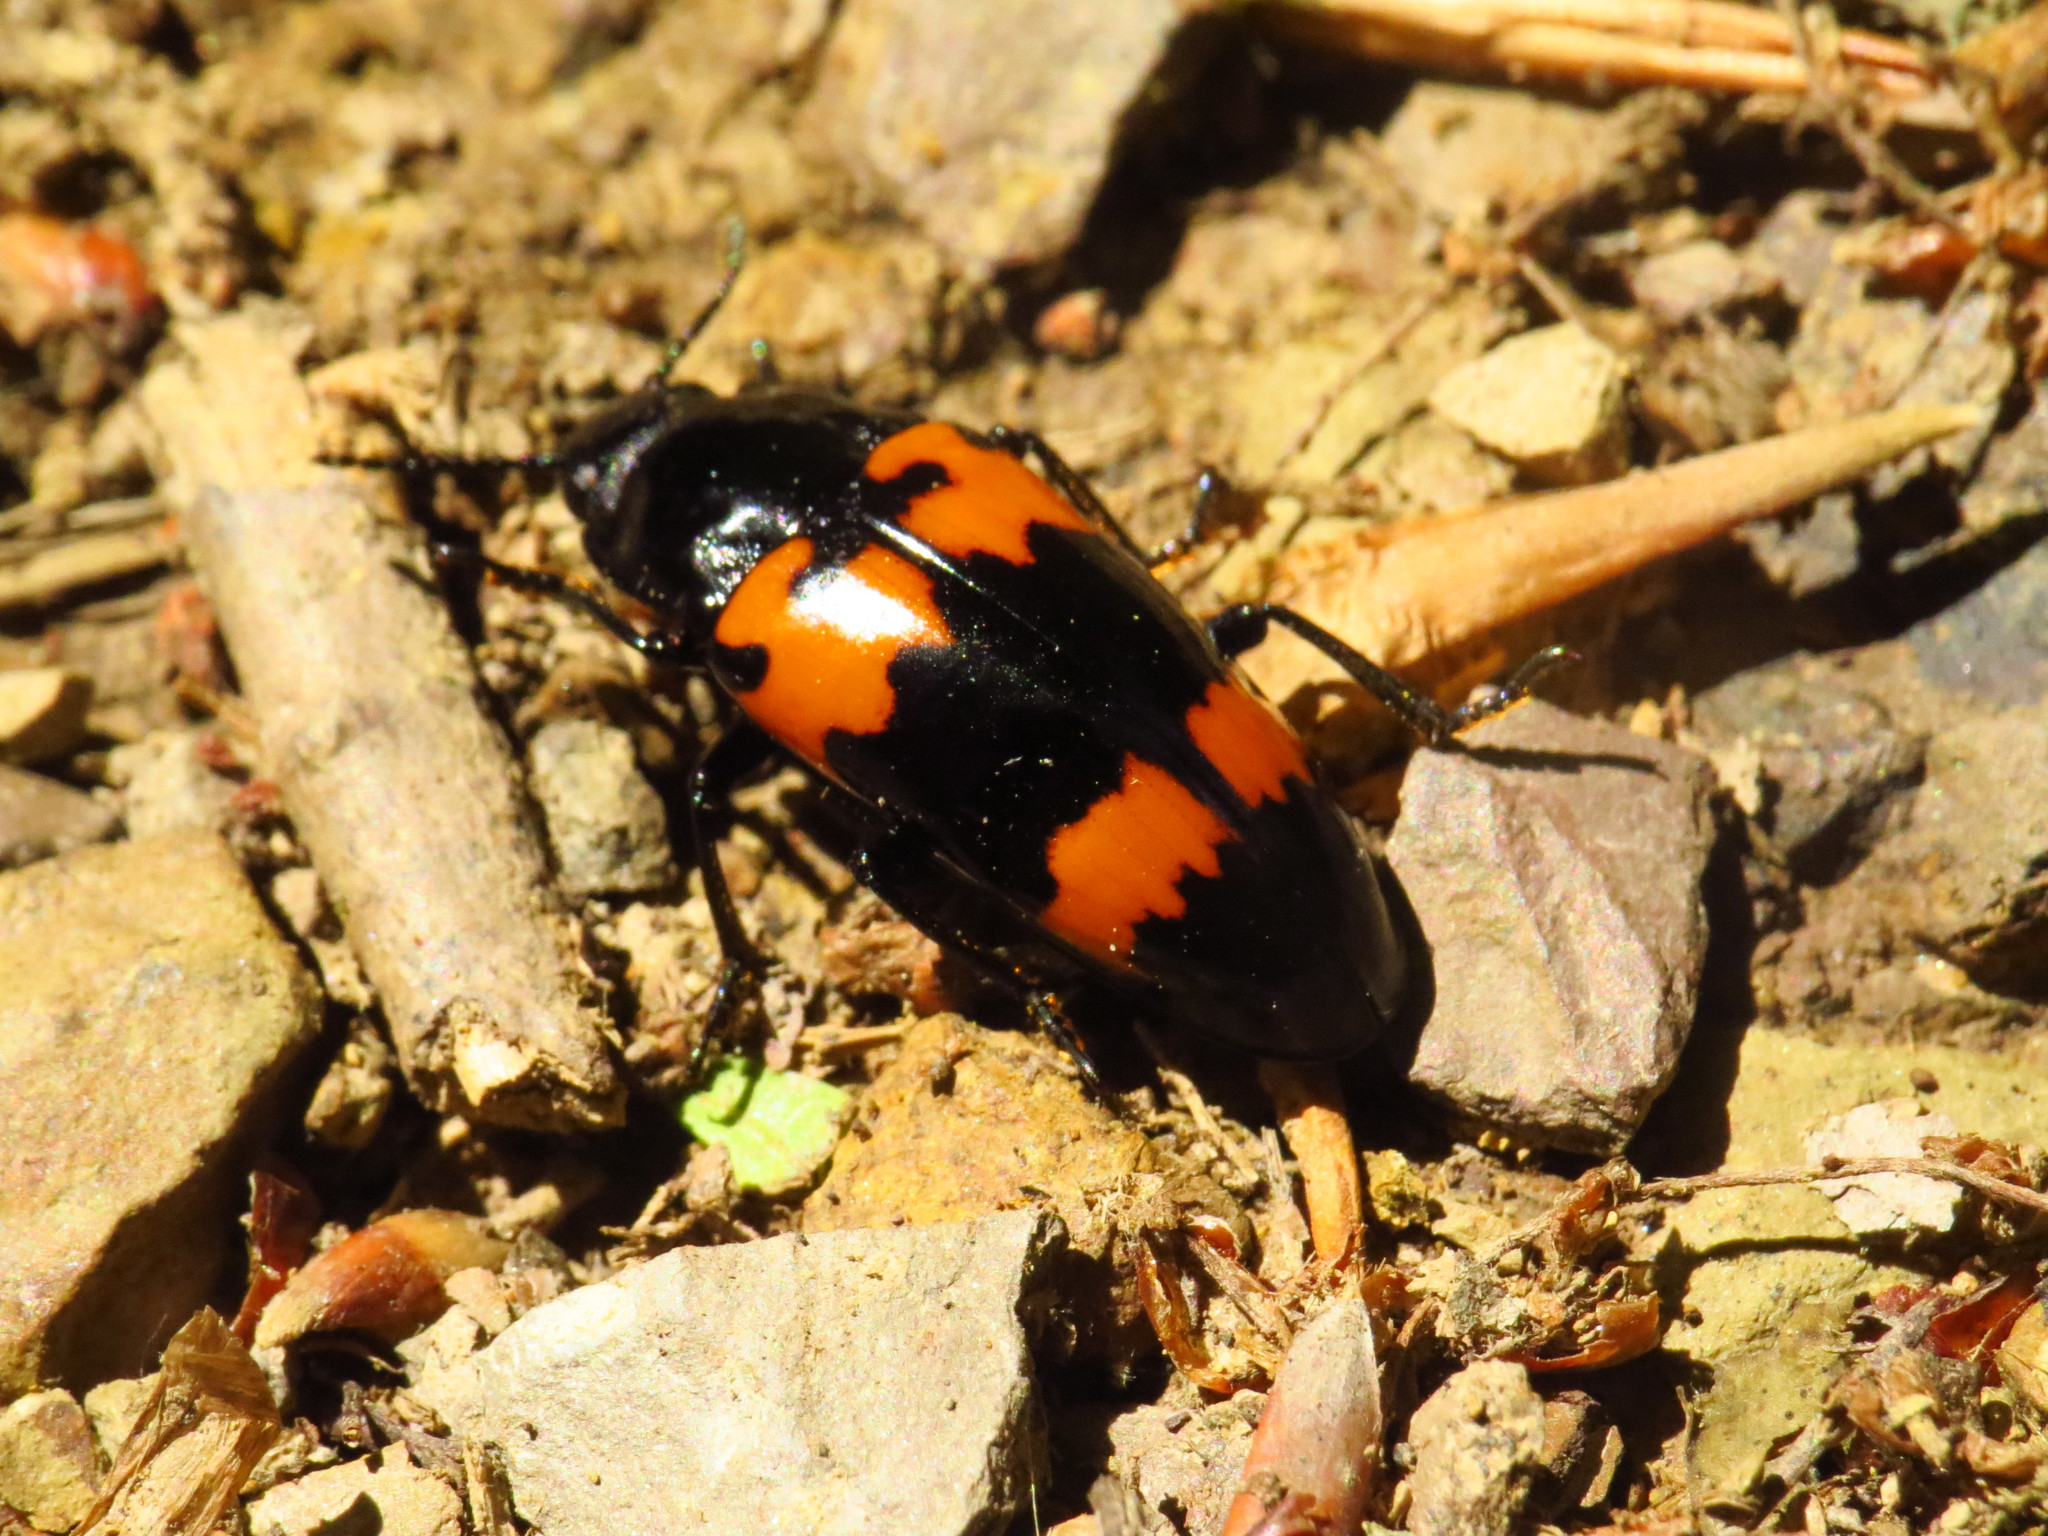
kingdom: Animalia
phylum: Arthropoda
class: Insecta
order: Coleoptera
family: Erotylidae
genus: Megalodacne
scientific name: Megalodacne heros
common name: Pleasing fungus beetle
